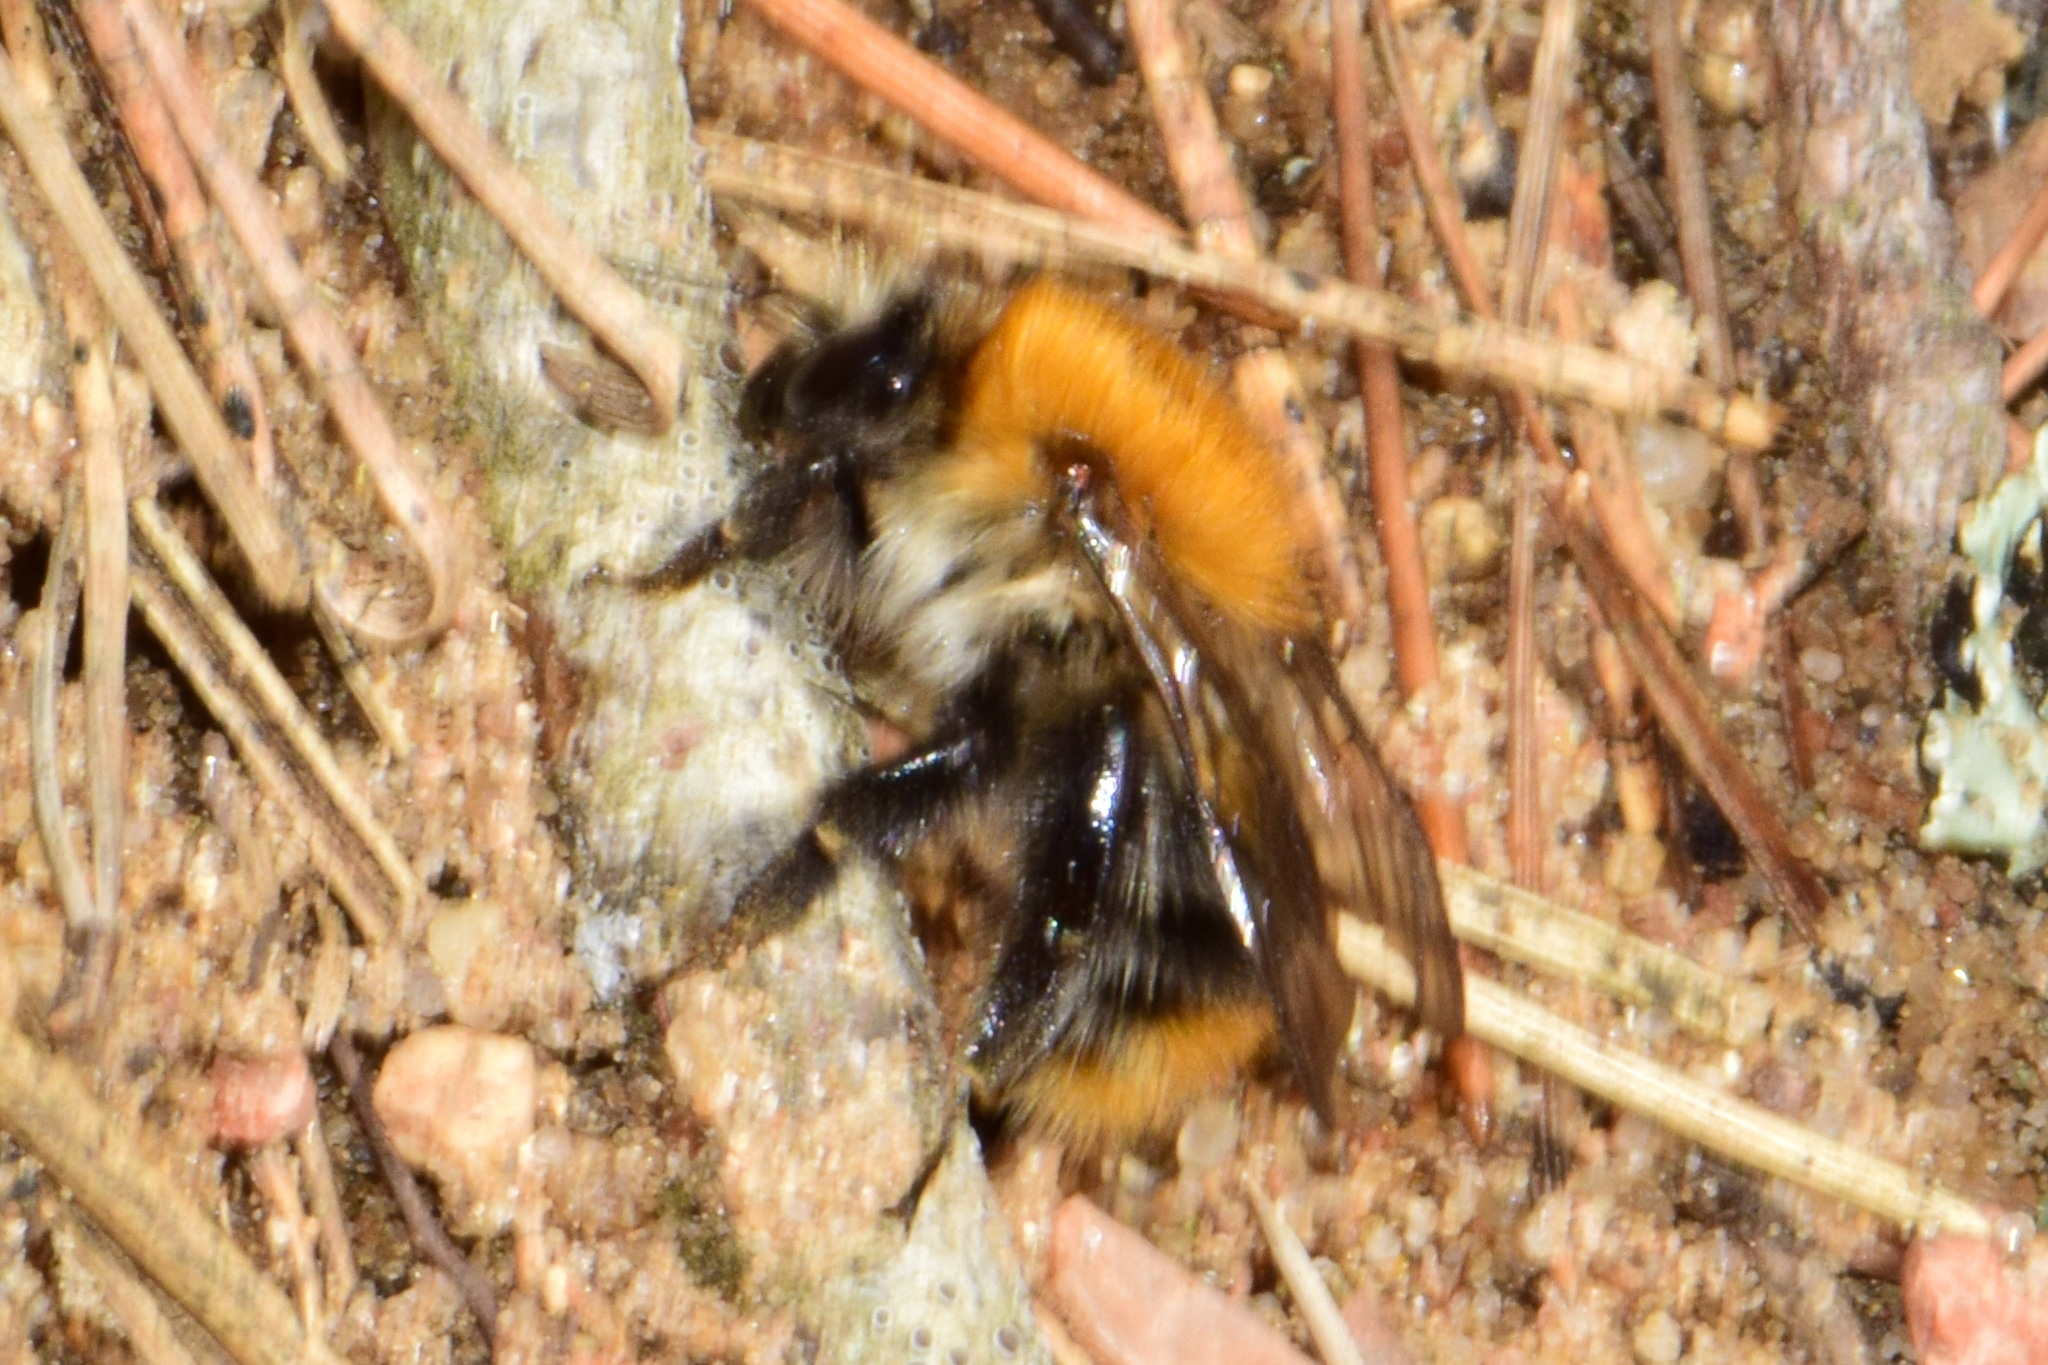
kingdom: Animalia
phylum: Arthropoda
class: Insecta
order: Hymenoptera
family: Apidae
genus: Bombus
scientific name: Bombus pascuorum
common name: Common carder bee
